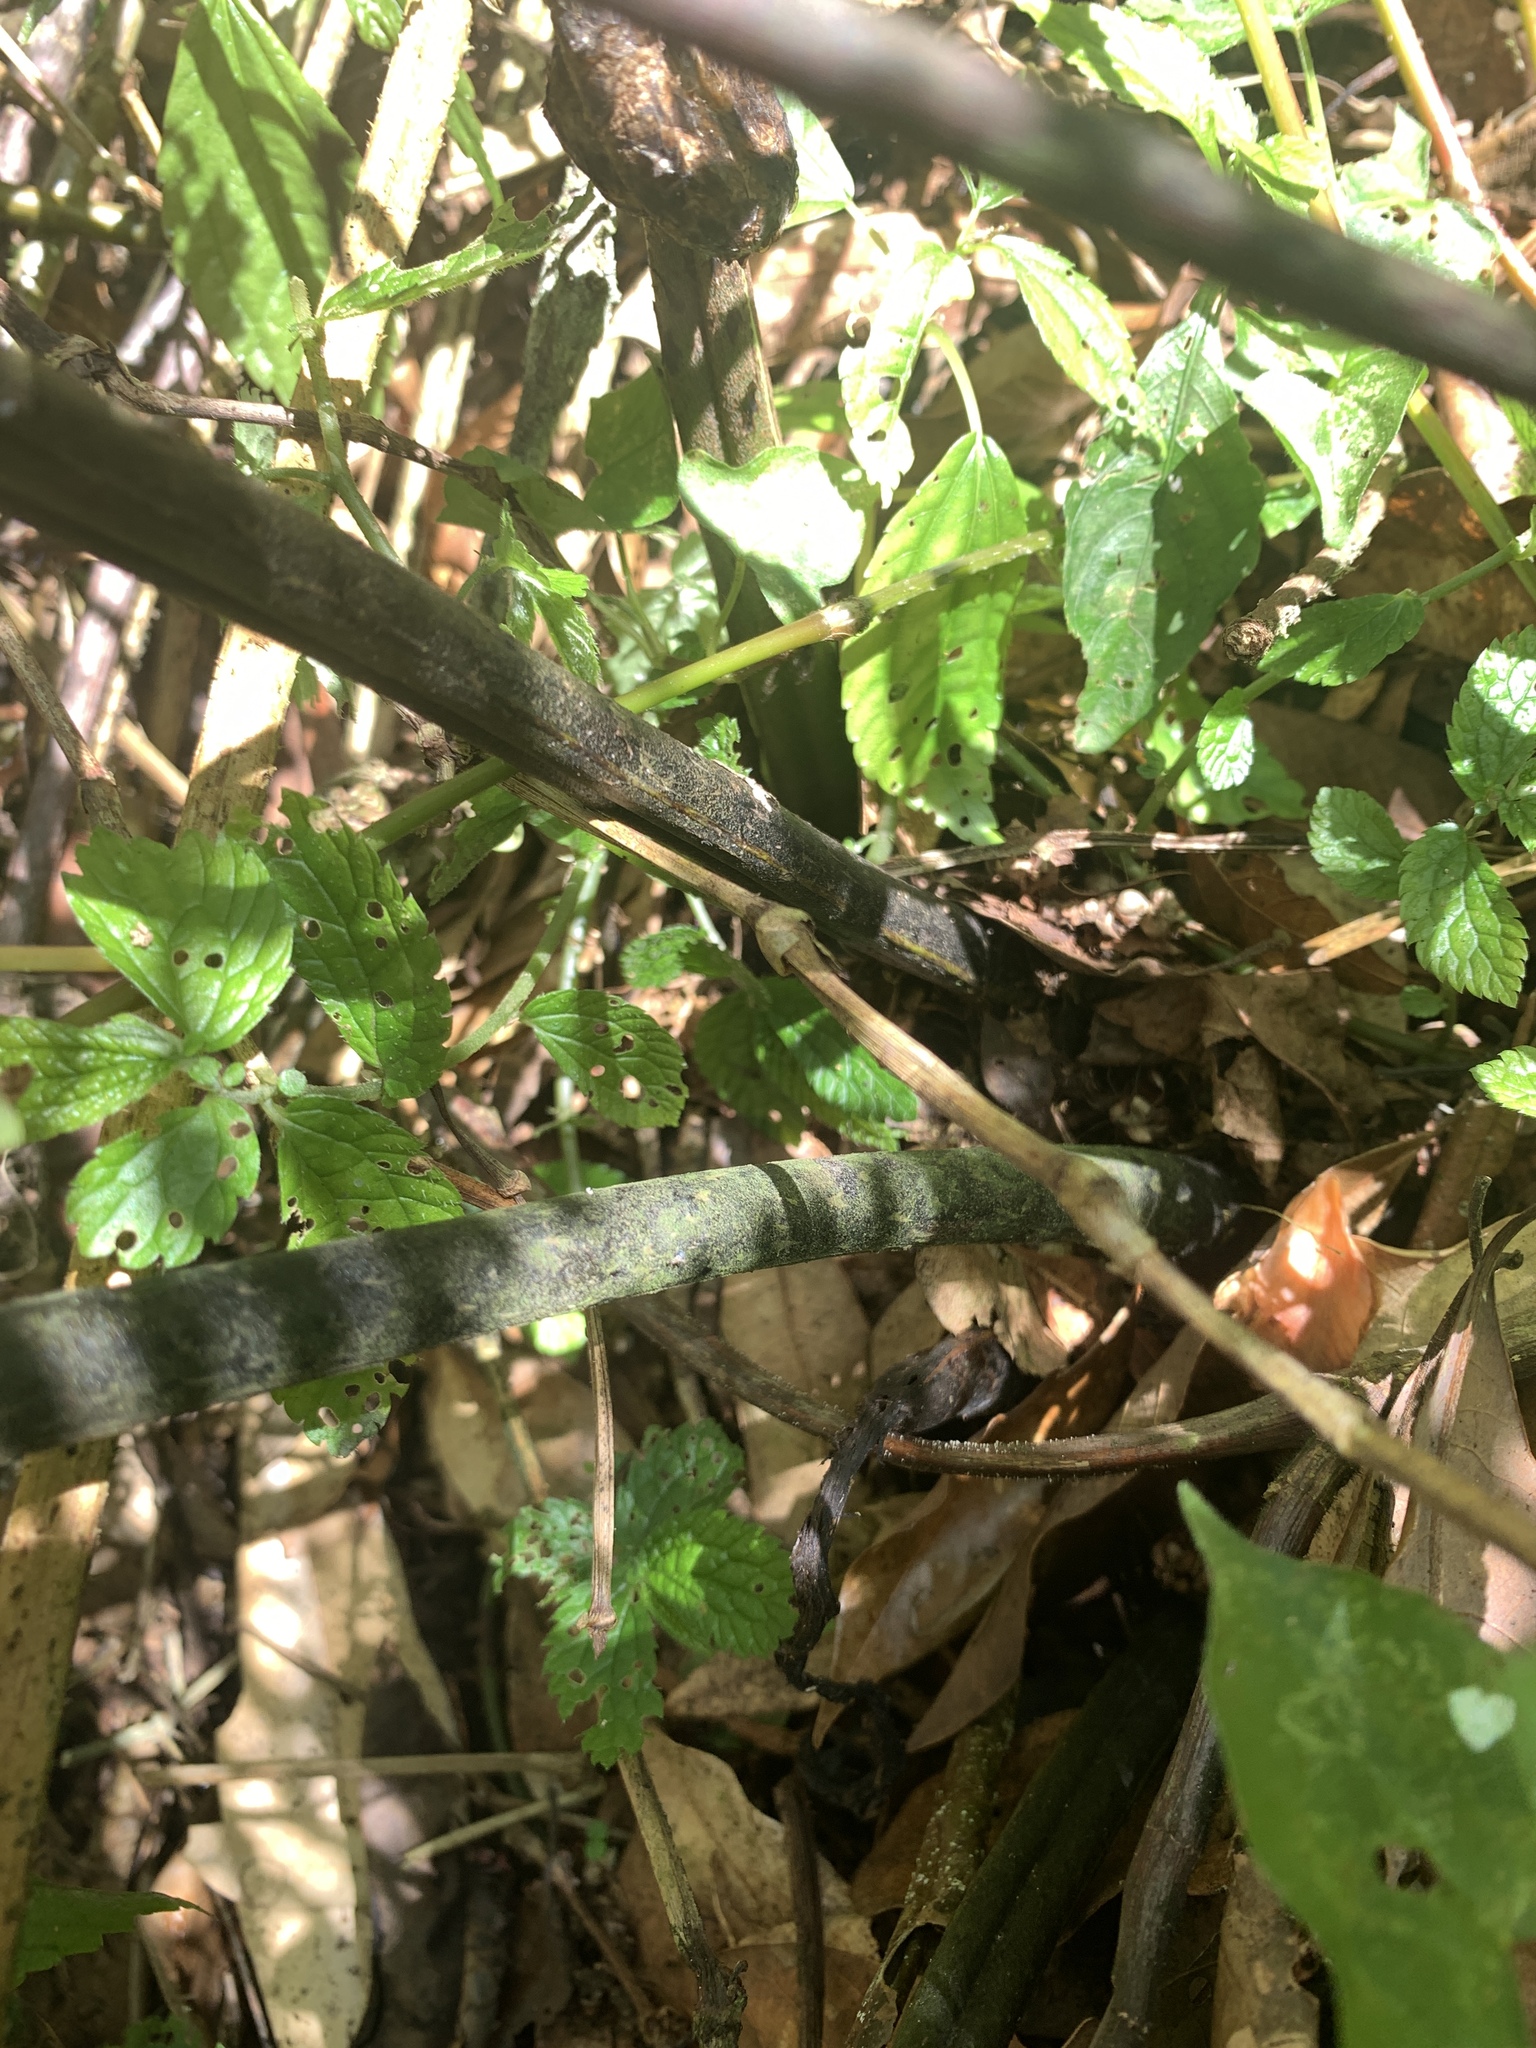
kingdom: Plantae
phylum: Tracheophyta
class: Polypodiopsida
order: Polypodiales
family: Athyriaceae
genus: Diplazium
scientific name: Diplazium laxifrons
